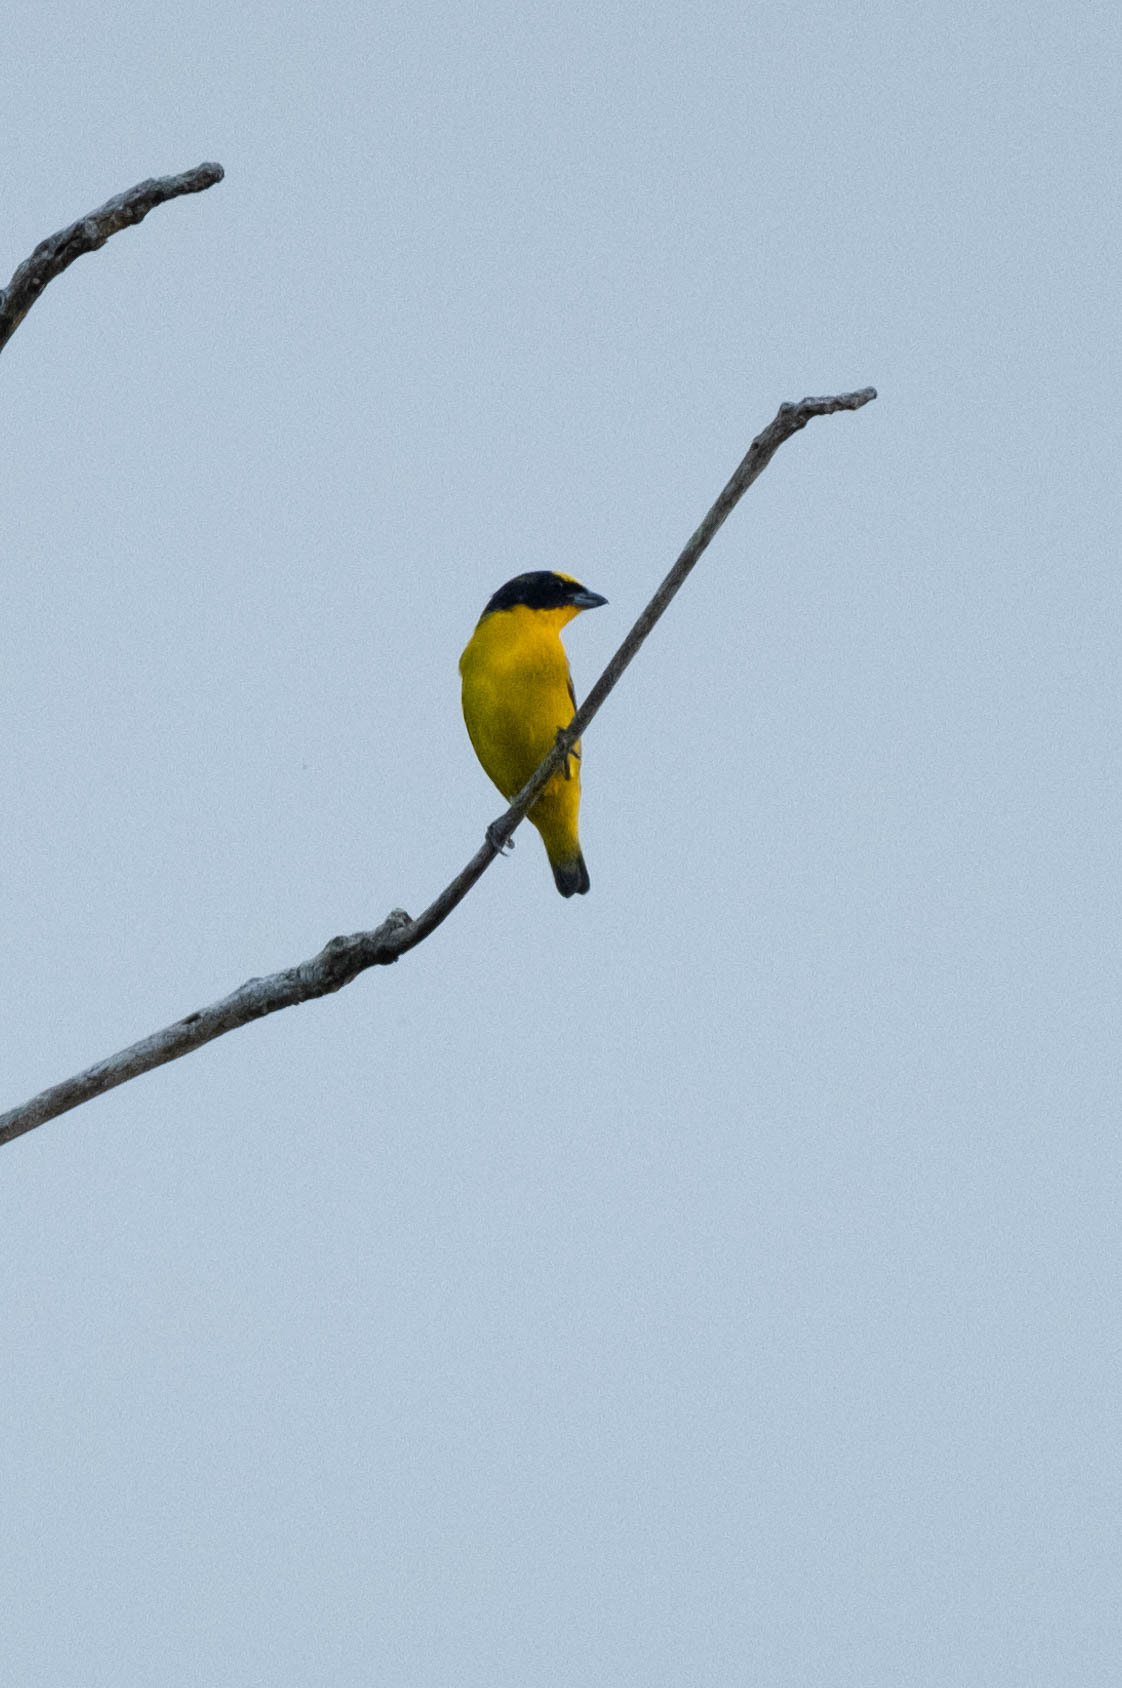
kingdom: Animalia
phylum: Chordata
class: Aves
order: Passeriformes
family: Fringillidae
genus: Euphonia
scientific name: Euphonia laniirostris
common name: Thick-billed euphonia
